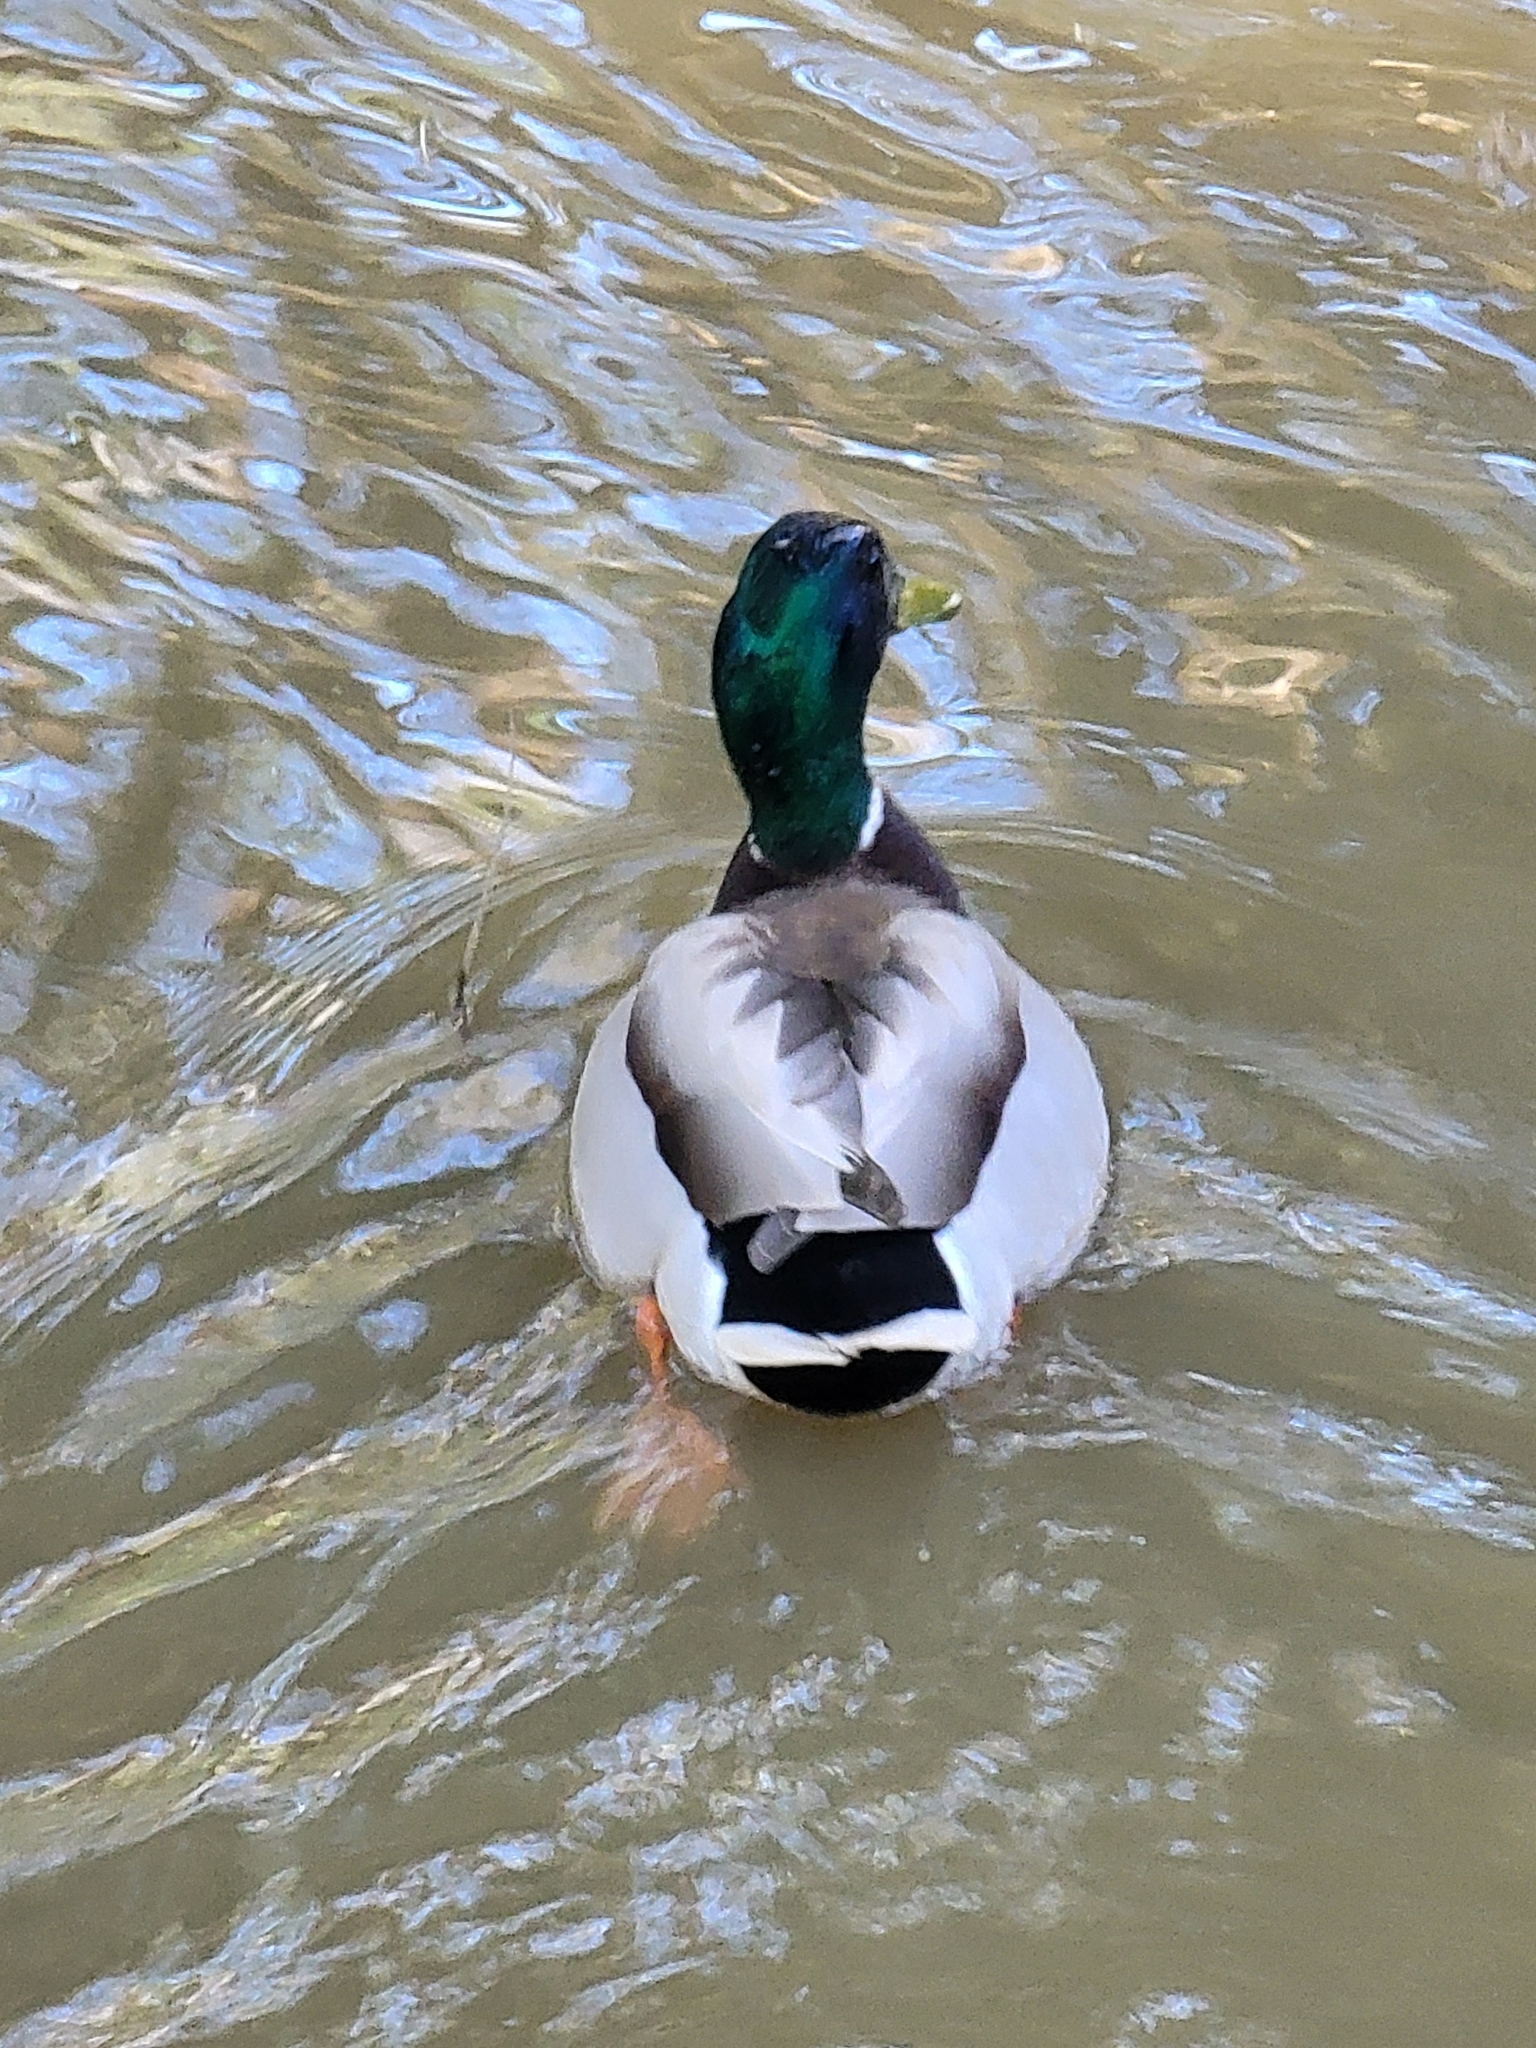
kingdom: Animalia
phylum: Chordata
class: Aves
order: Anseriformes
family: Anatidae
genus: Anas
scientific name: Anas platyrhynchos
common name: Mallard
